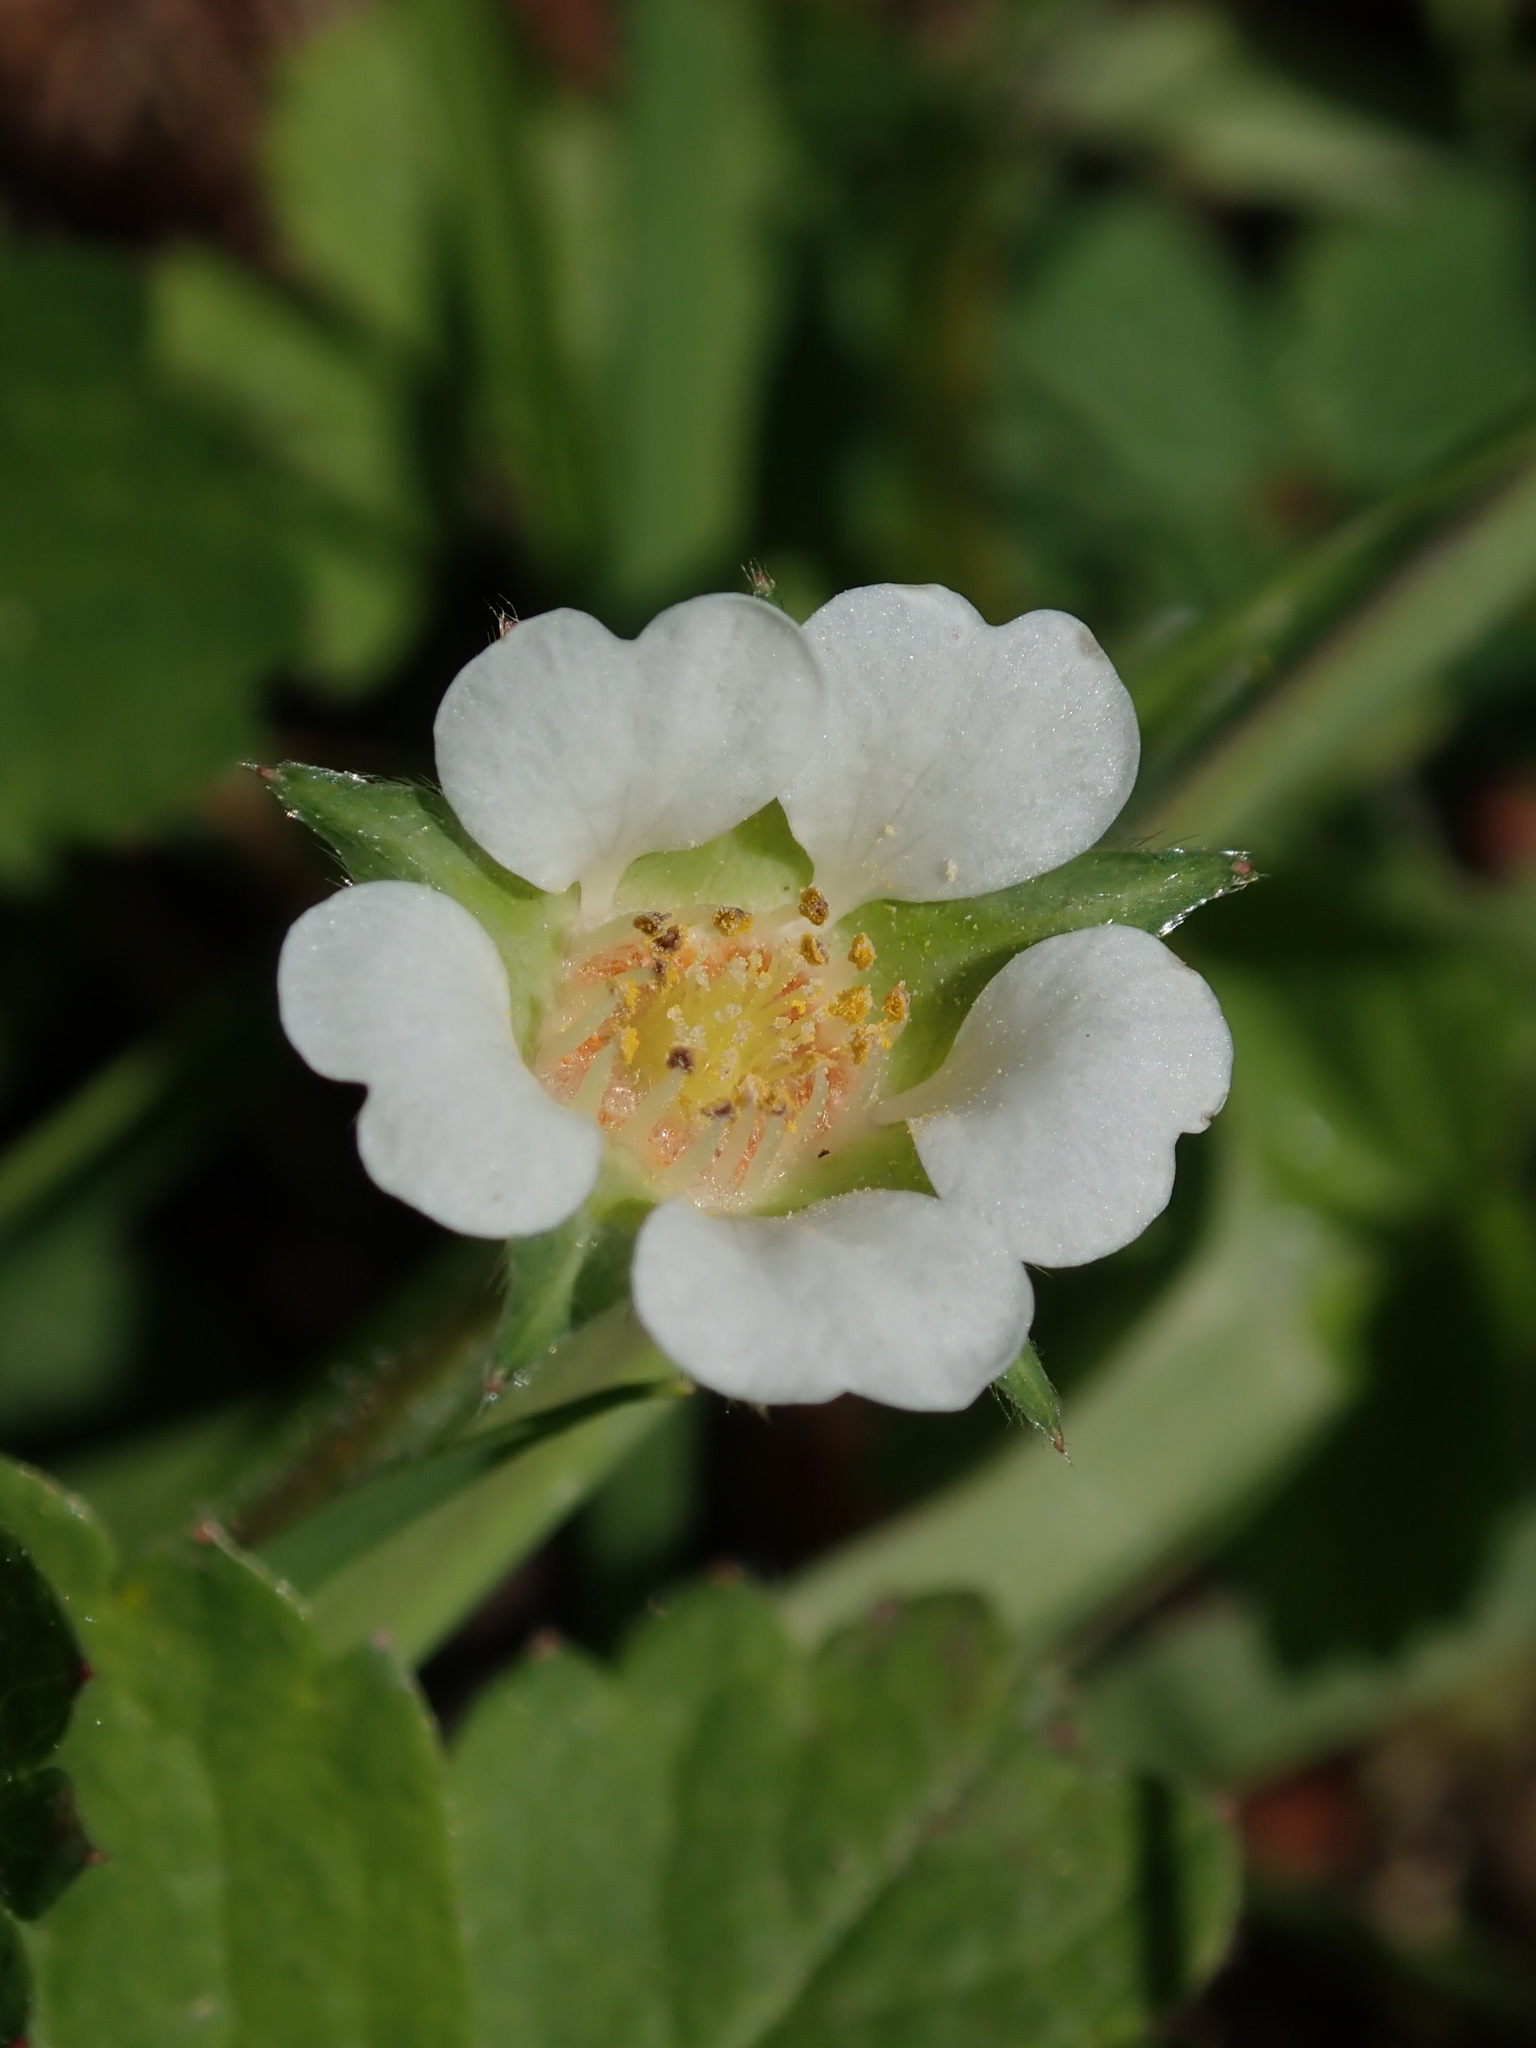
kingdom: Plantae
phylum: Tracheophyta
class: Magnoliopsida
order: Rosales
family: Rosaceae
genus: Potentilla
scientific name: Potentilla sterilis
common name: Barren strawberry
